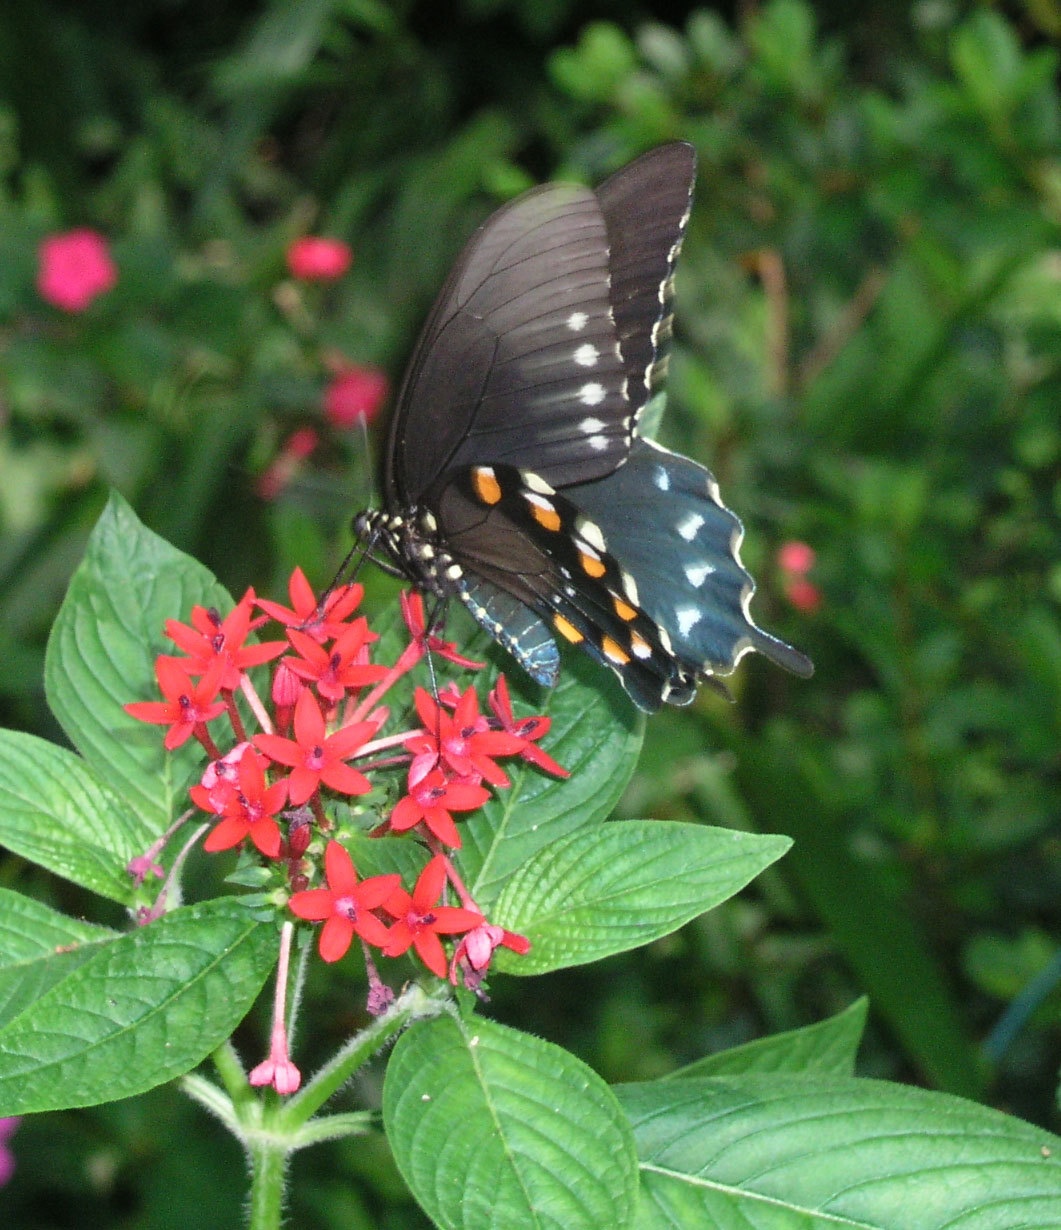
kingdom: Animalia
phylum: Arthropoda
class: Insecta
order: Lepidoptera
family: Papilionidae
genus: Battus
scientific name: Battus philenor
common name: Pipevine swallowtail
